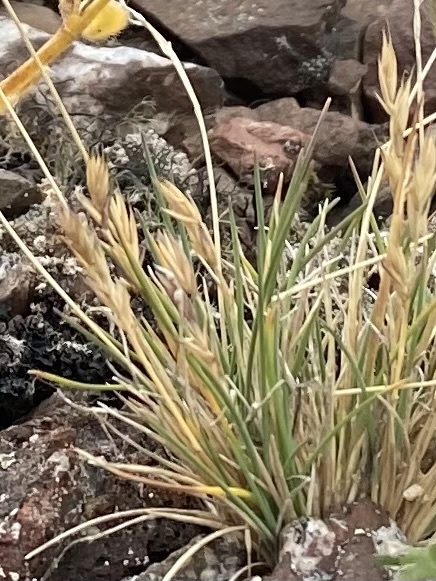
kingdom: Plantae
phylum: Tracheophyta
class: Liliopsida
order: Poales
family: Poaceae
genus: Festuca
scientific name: Festuca auriculata
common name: Eared fescue
